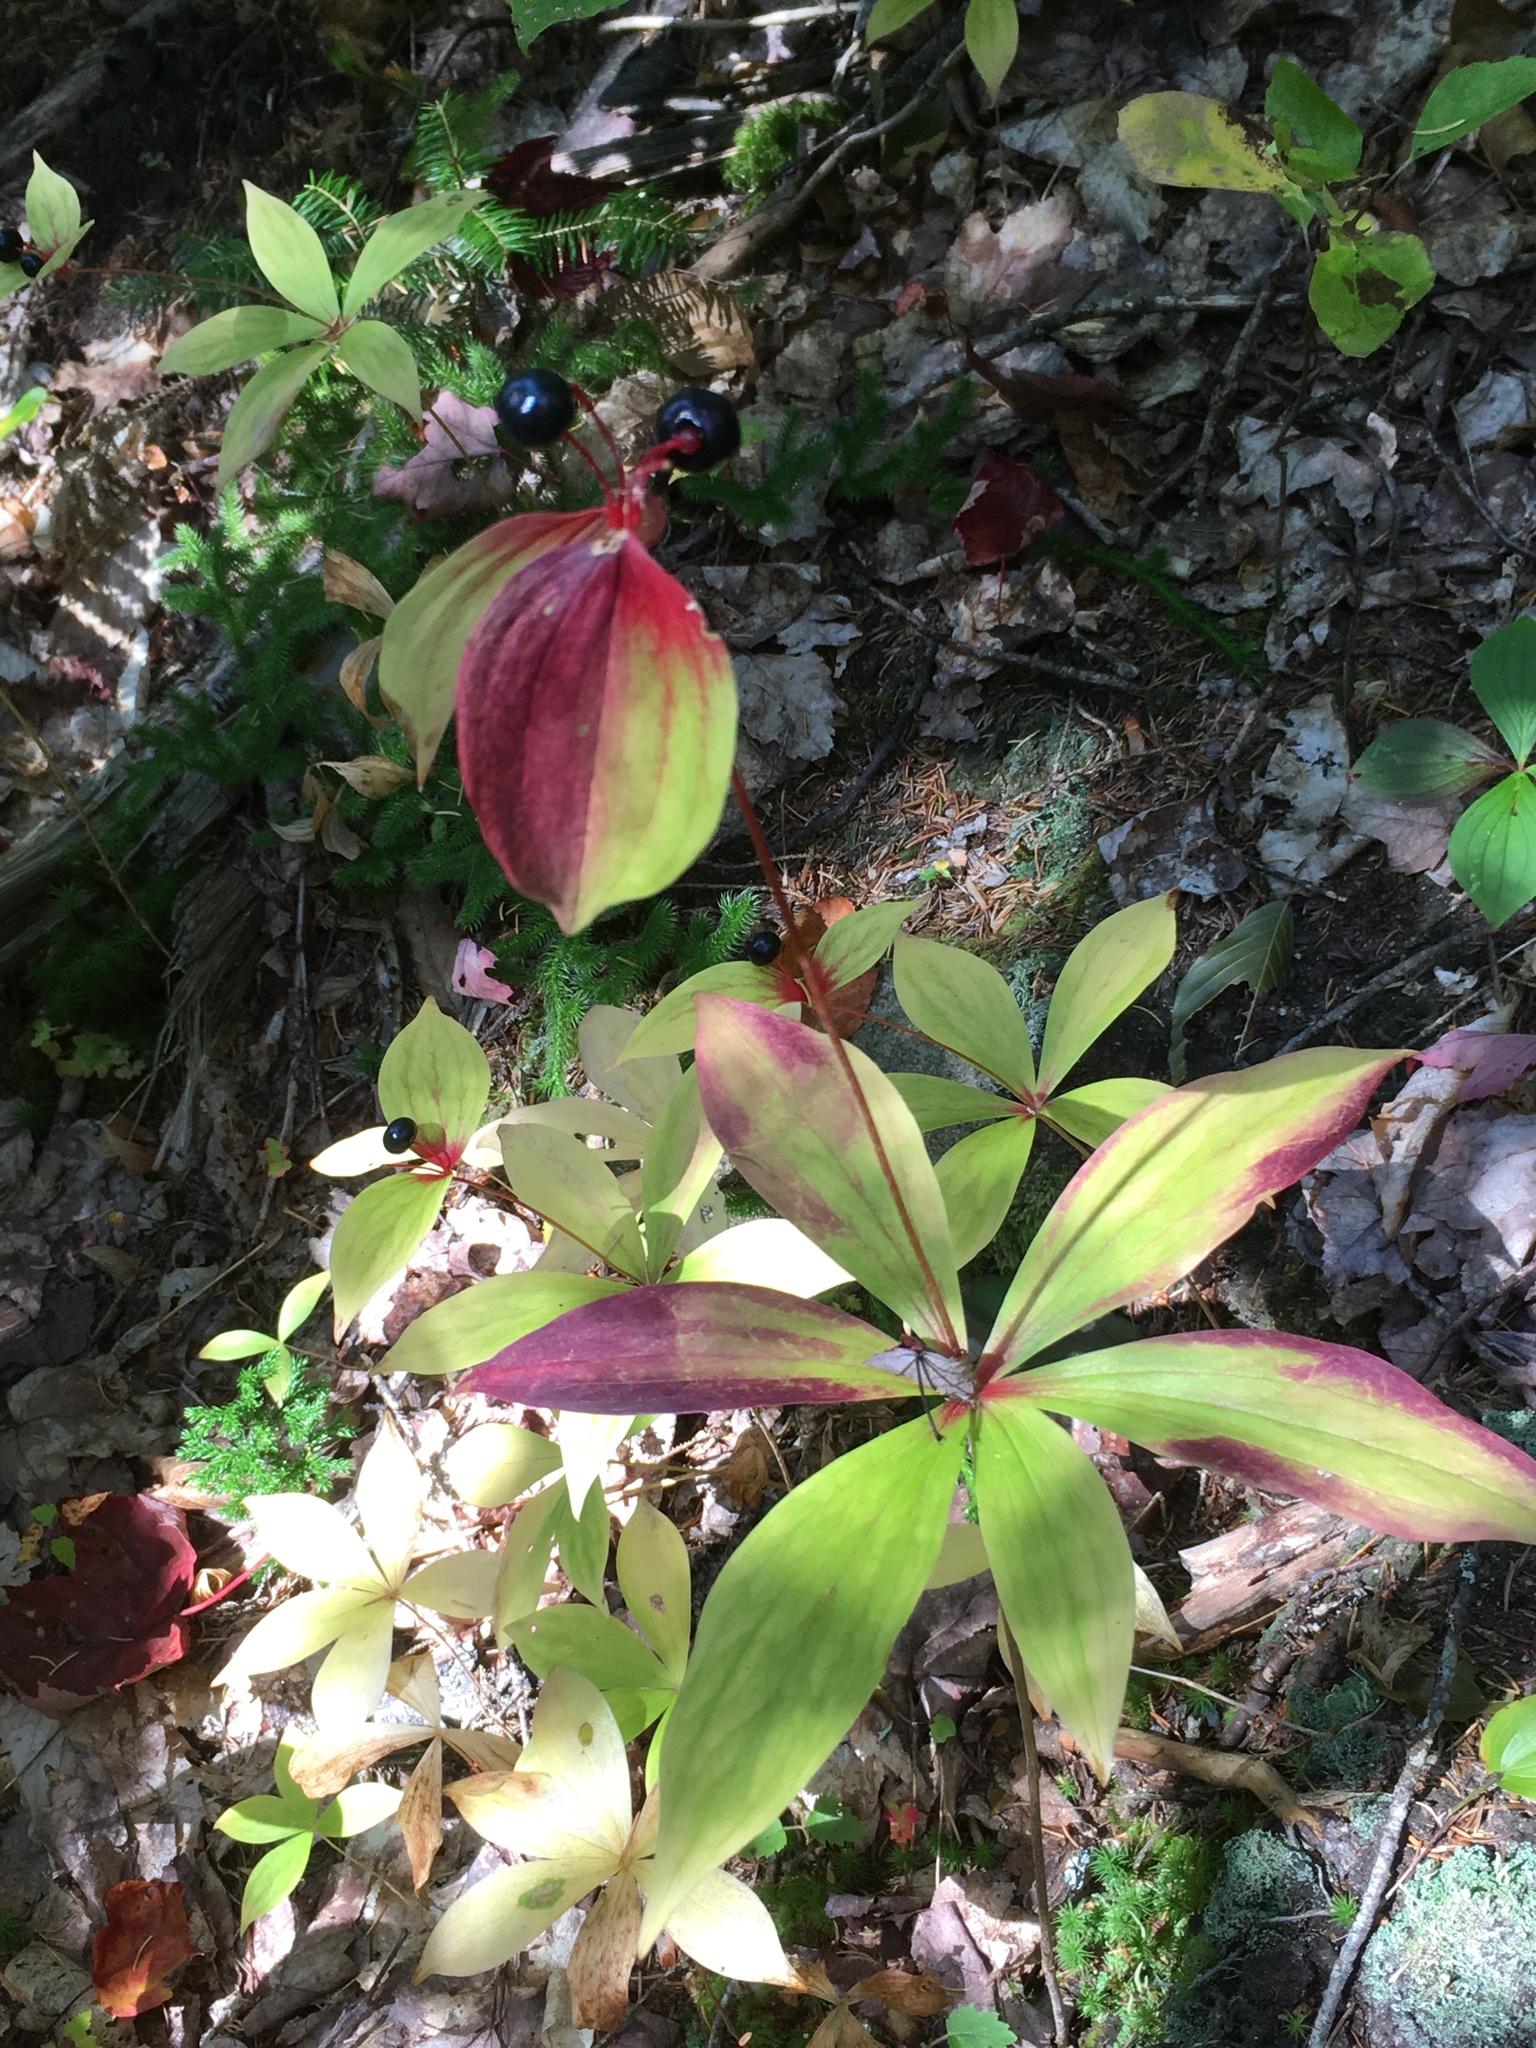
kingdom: Plantae
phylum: Tracheophyta
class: Liliopsida
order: Liliales
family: Liliaceae
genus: Medeola
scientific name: Medeola virginiana
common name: Indian cucumber-root
